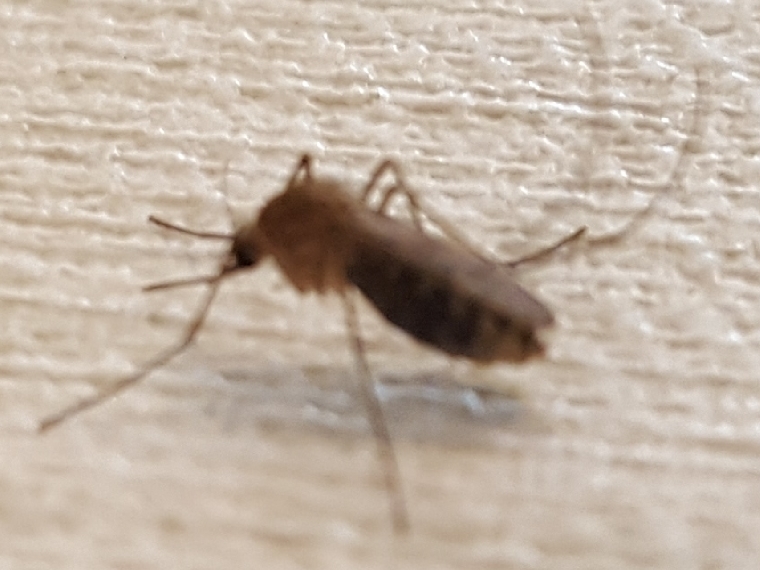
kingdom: Animalia
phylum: Arthropoda
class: Insecta
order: Diptera
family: Culicidae
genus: Culex
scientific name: Culex quinquefasciatus
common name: Southern house mosquito
